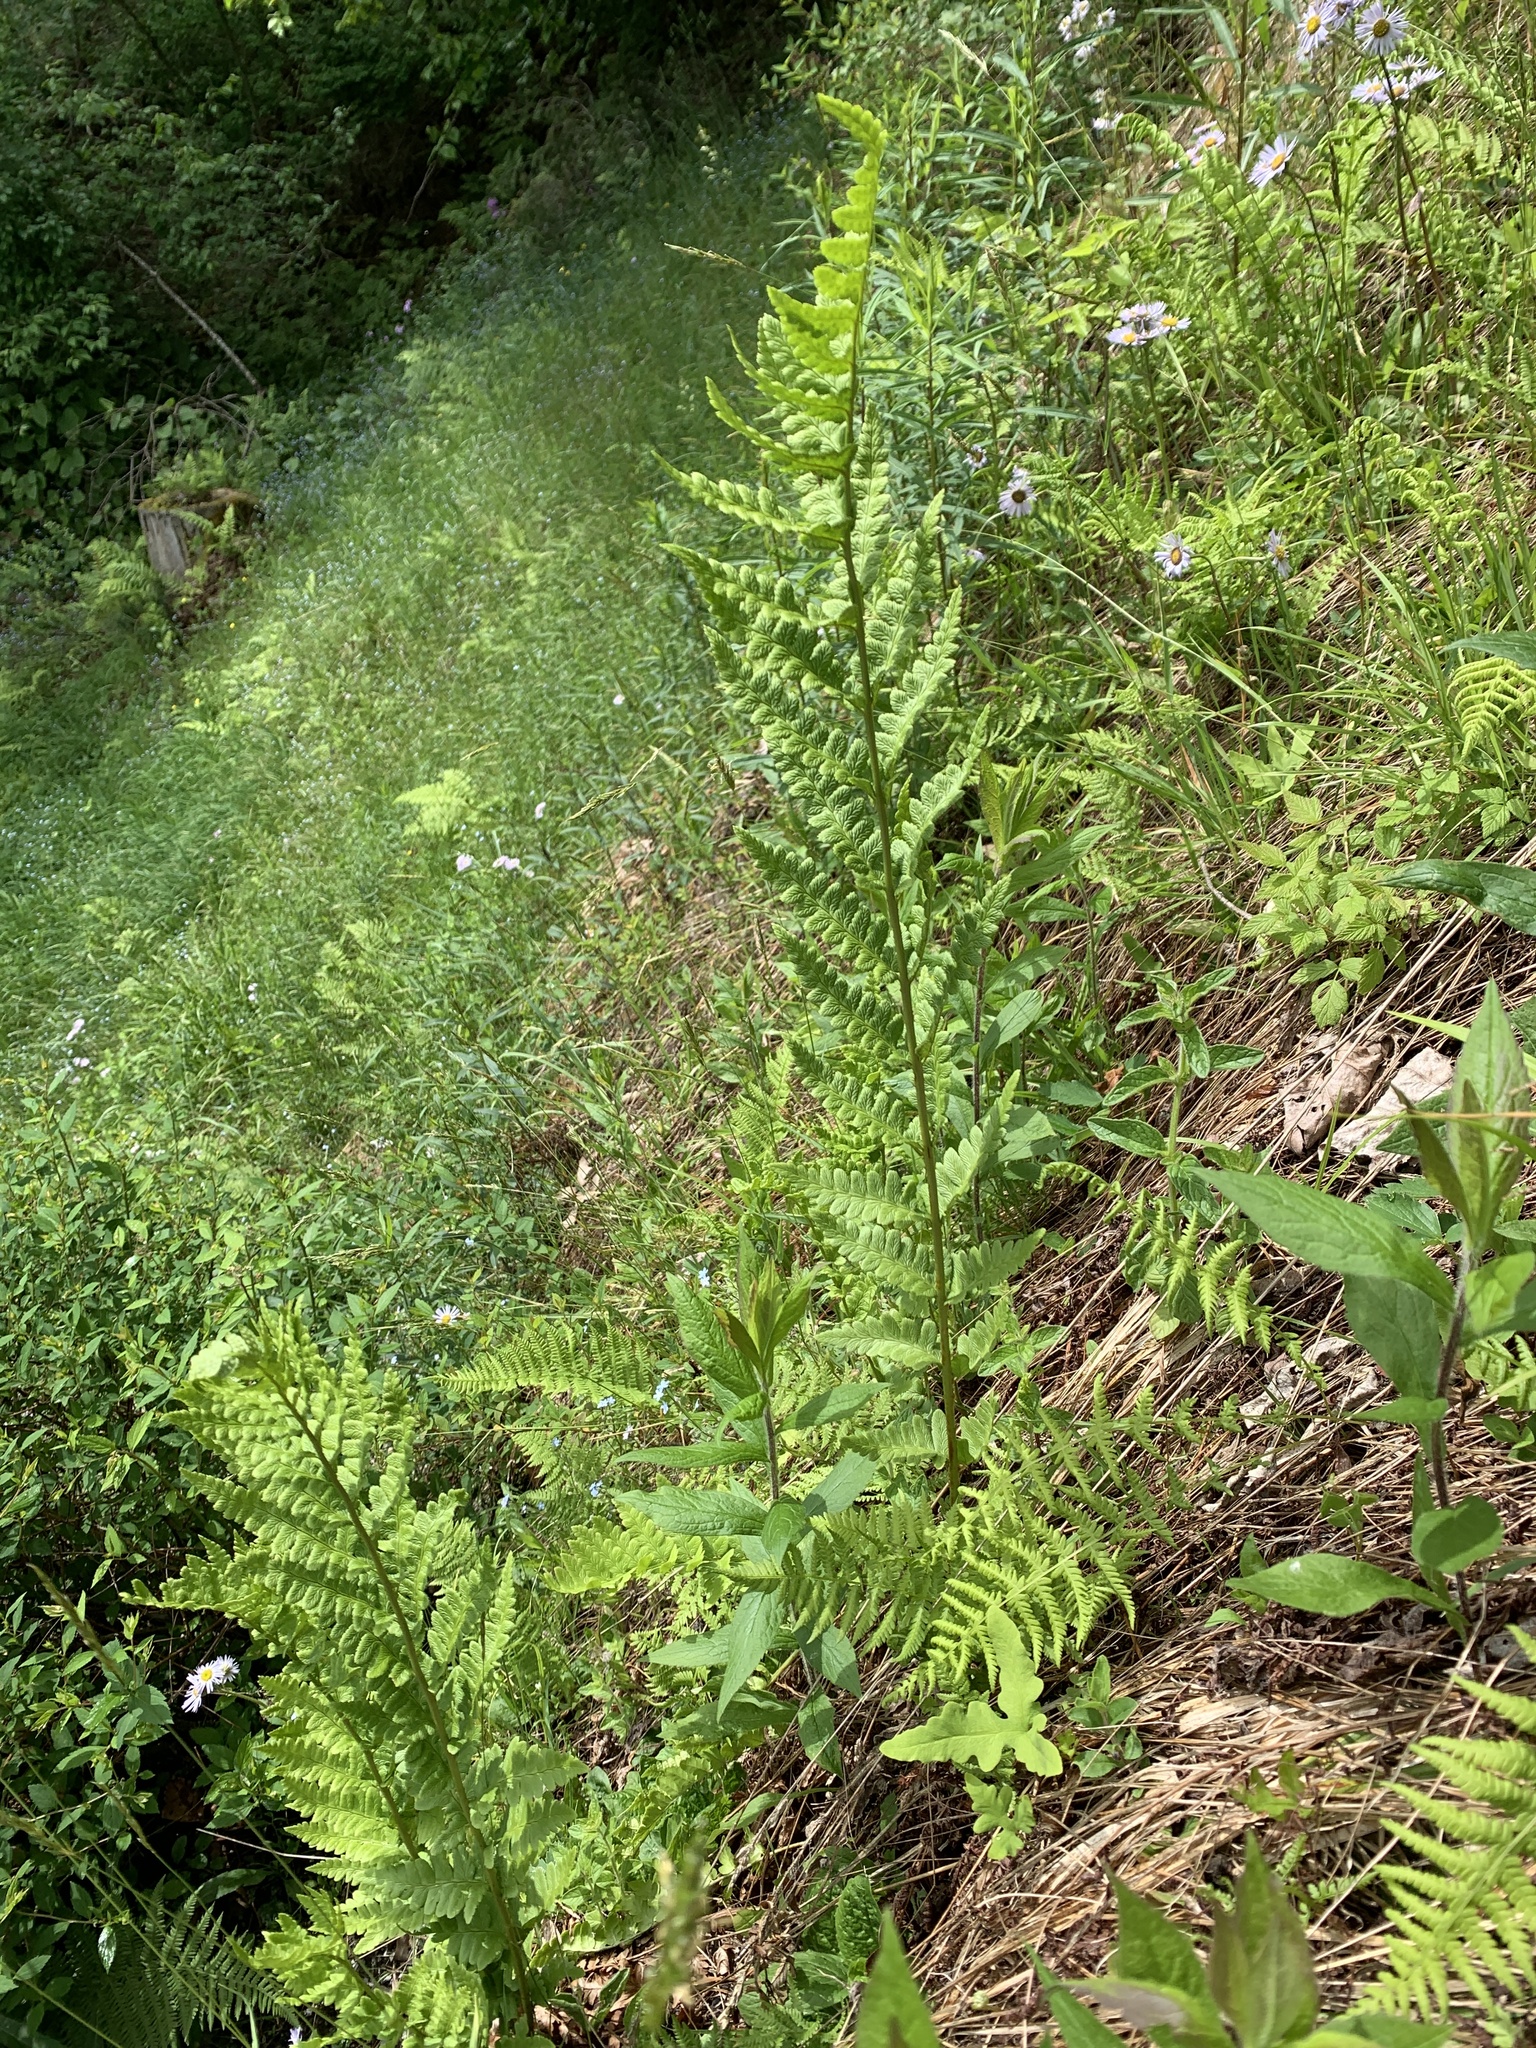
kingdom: Plantae
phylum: Tracheophyta
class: Polypodiopsida
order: Polypodiales
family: Dryopteridaceae
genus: Dryopteris
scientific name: Dryopteris cristata
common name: Crested wood fern
